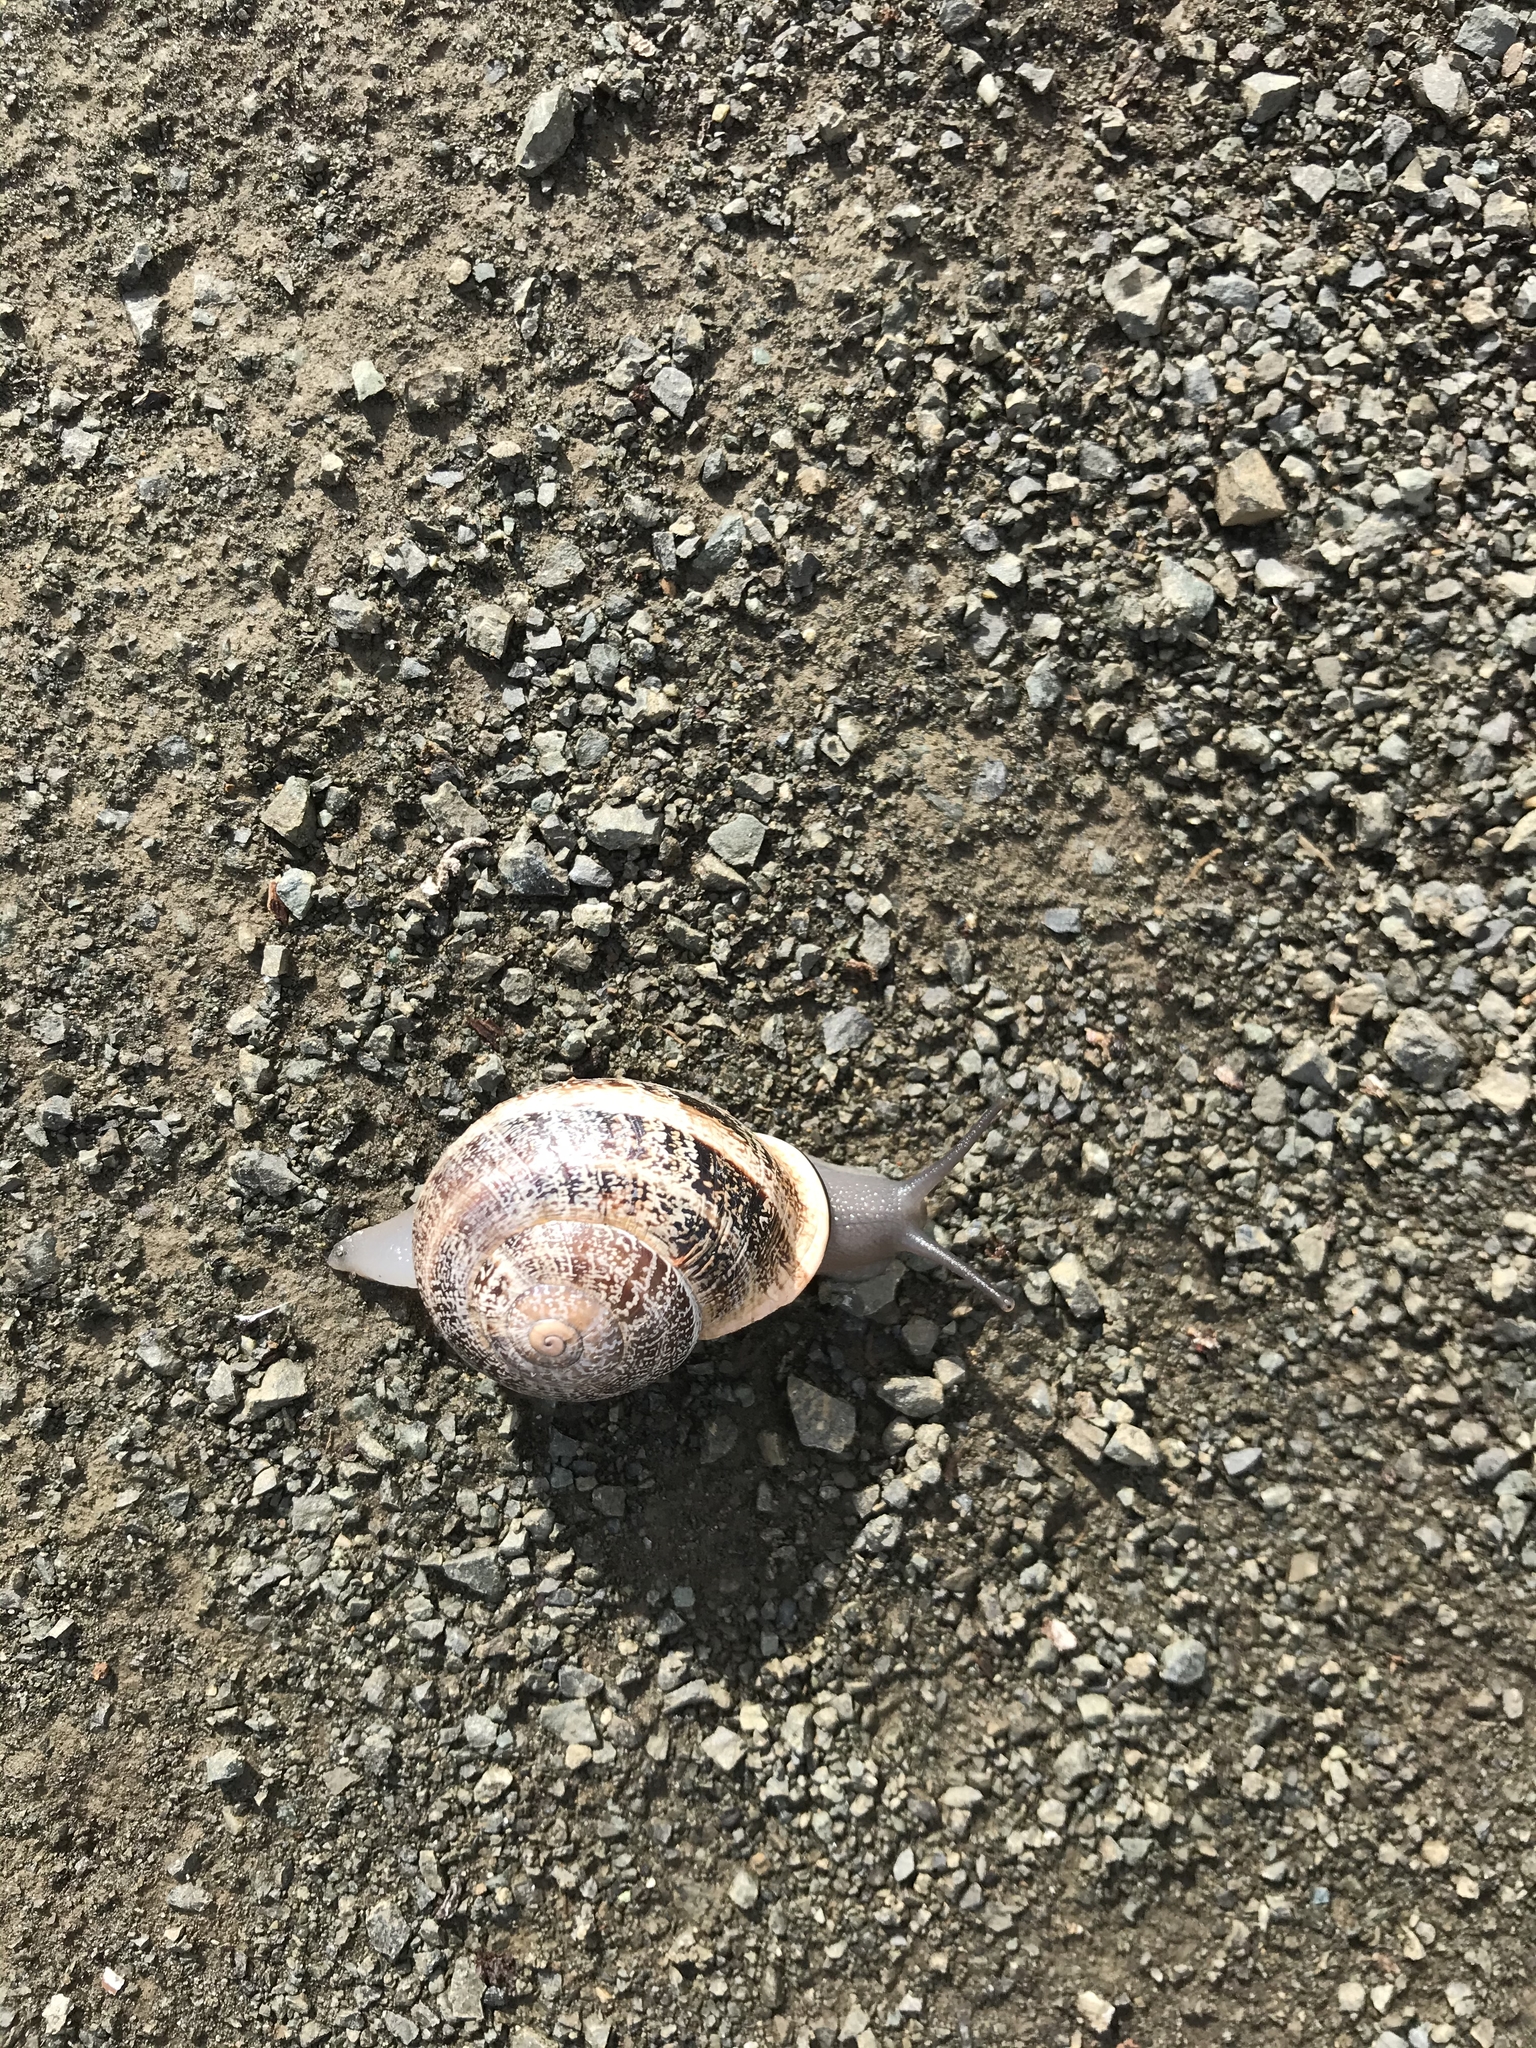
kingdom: Animalia
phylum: Mollusca
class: Gastropoda
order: Stylommatophora
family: Helicidae
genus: Otala
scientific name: Otala lactea
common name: Milk snail
